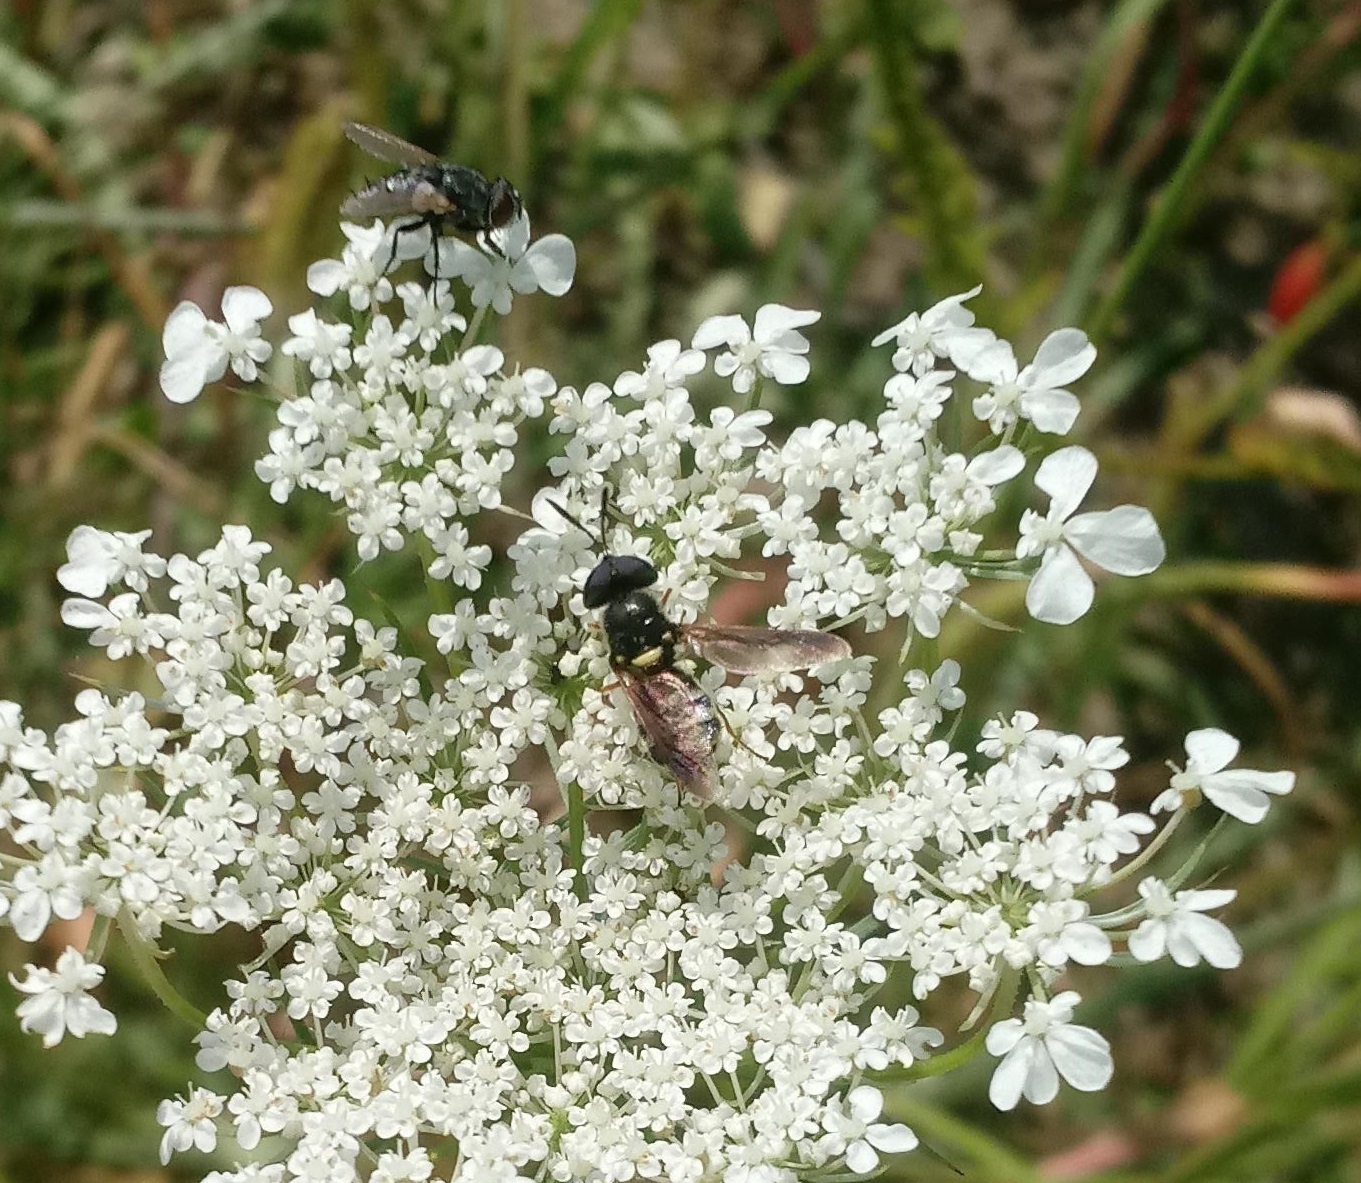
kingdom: Animalia
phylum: Arthropoda
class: Insecta
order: Diptera
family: Stratiomyidae
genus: Hoplitimyia
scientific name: Hoplitimyia constans
